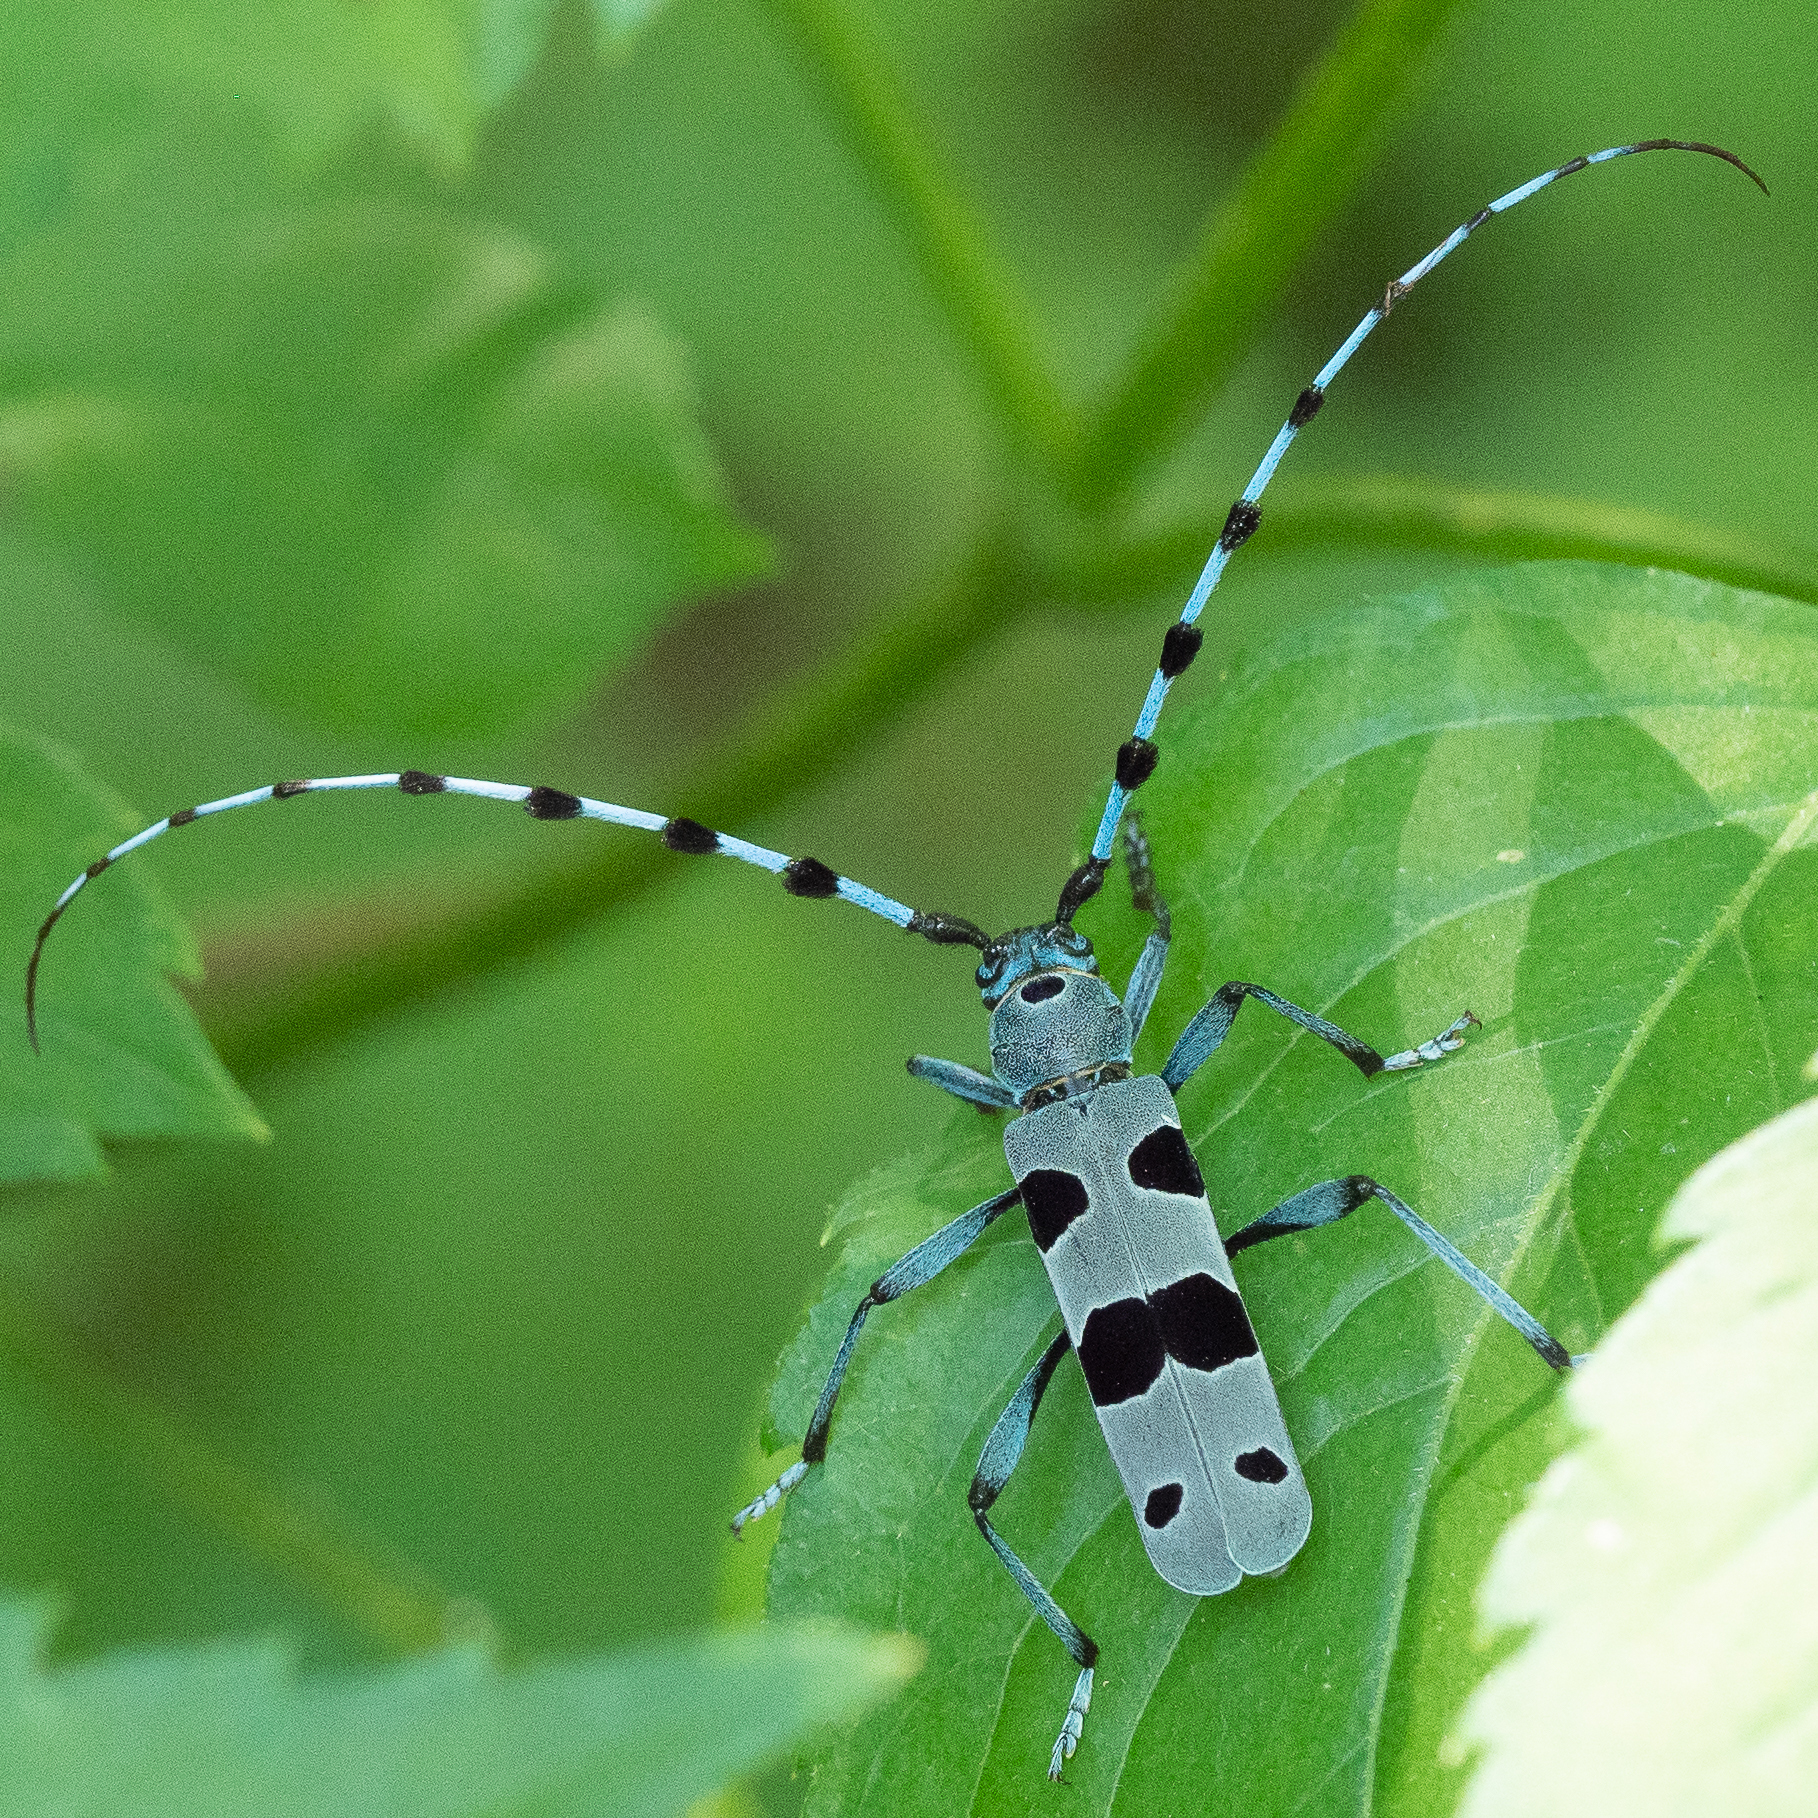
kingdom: Animalia
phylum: Arthropoda
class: Insecta
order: Coleoptera
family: Cerambycidae
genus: Rosalia
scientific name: Rosalia alpina
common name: Rosalia longicorn
